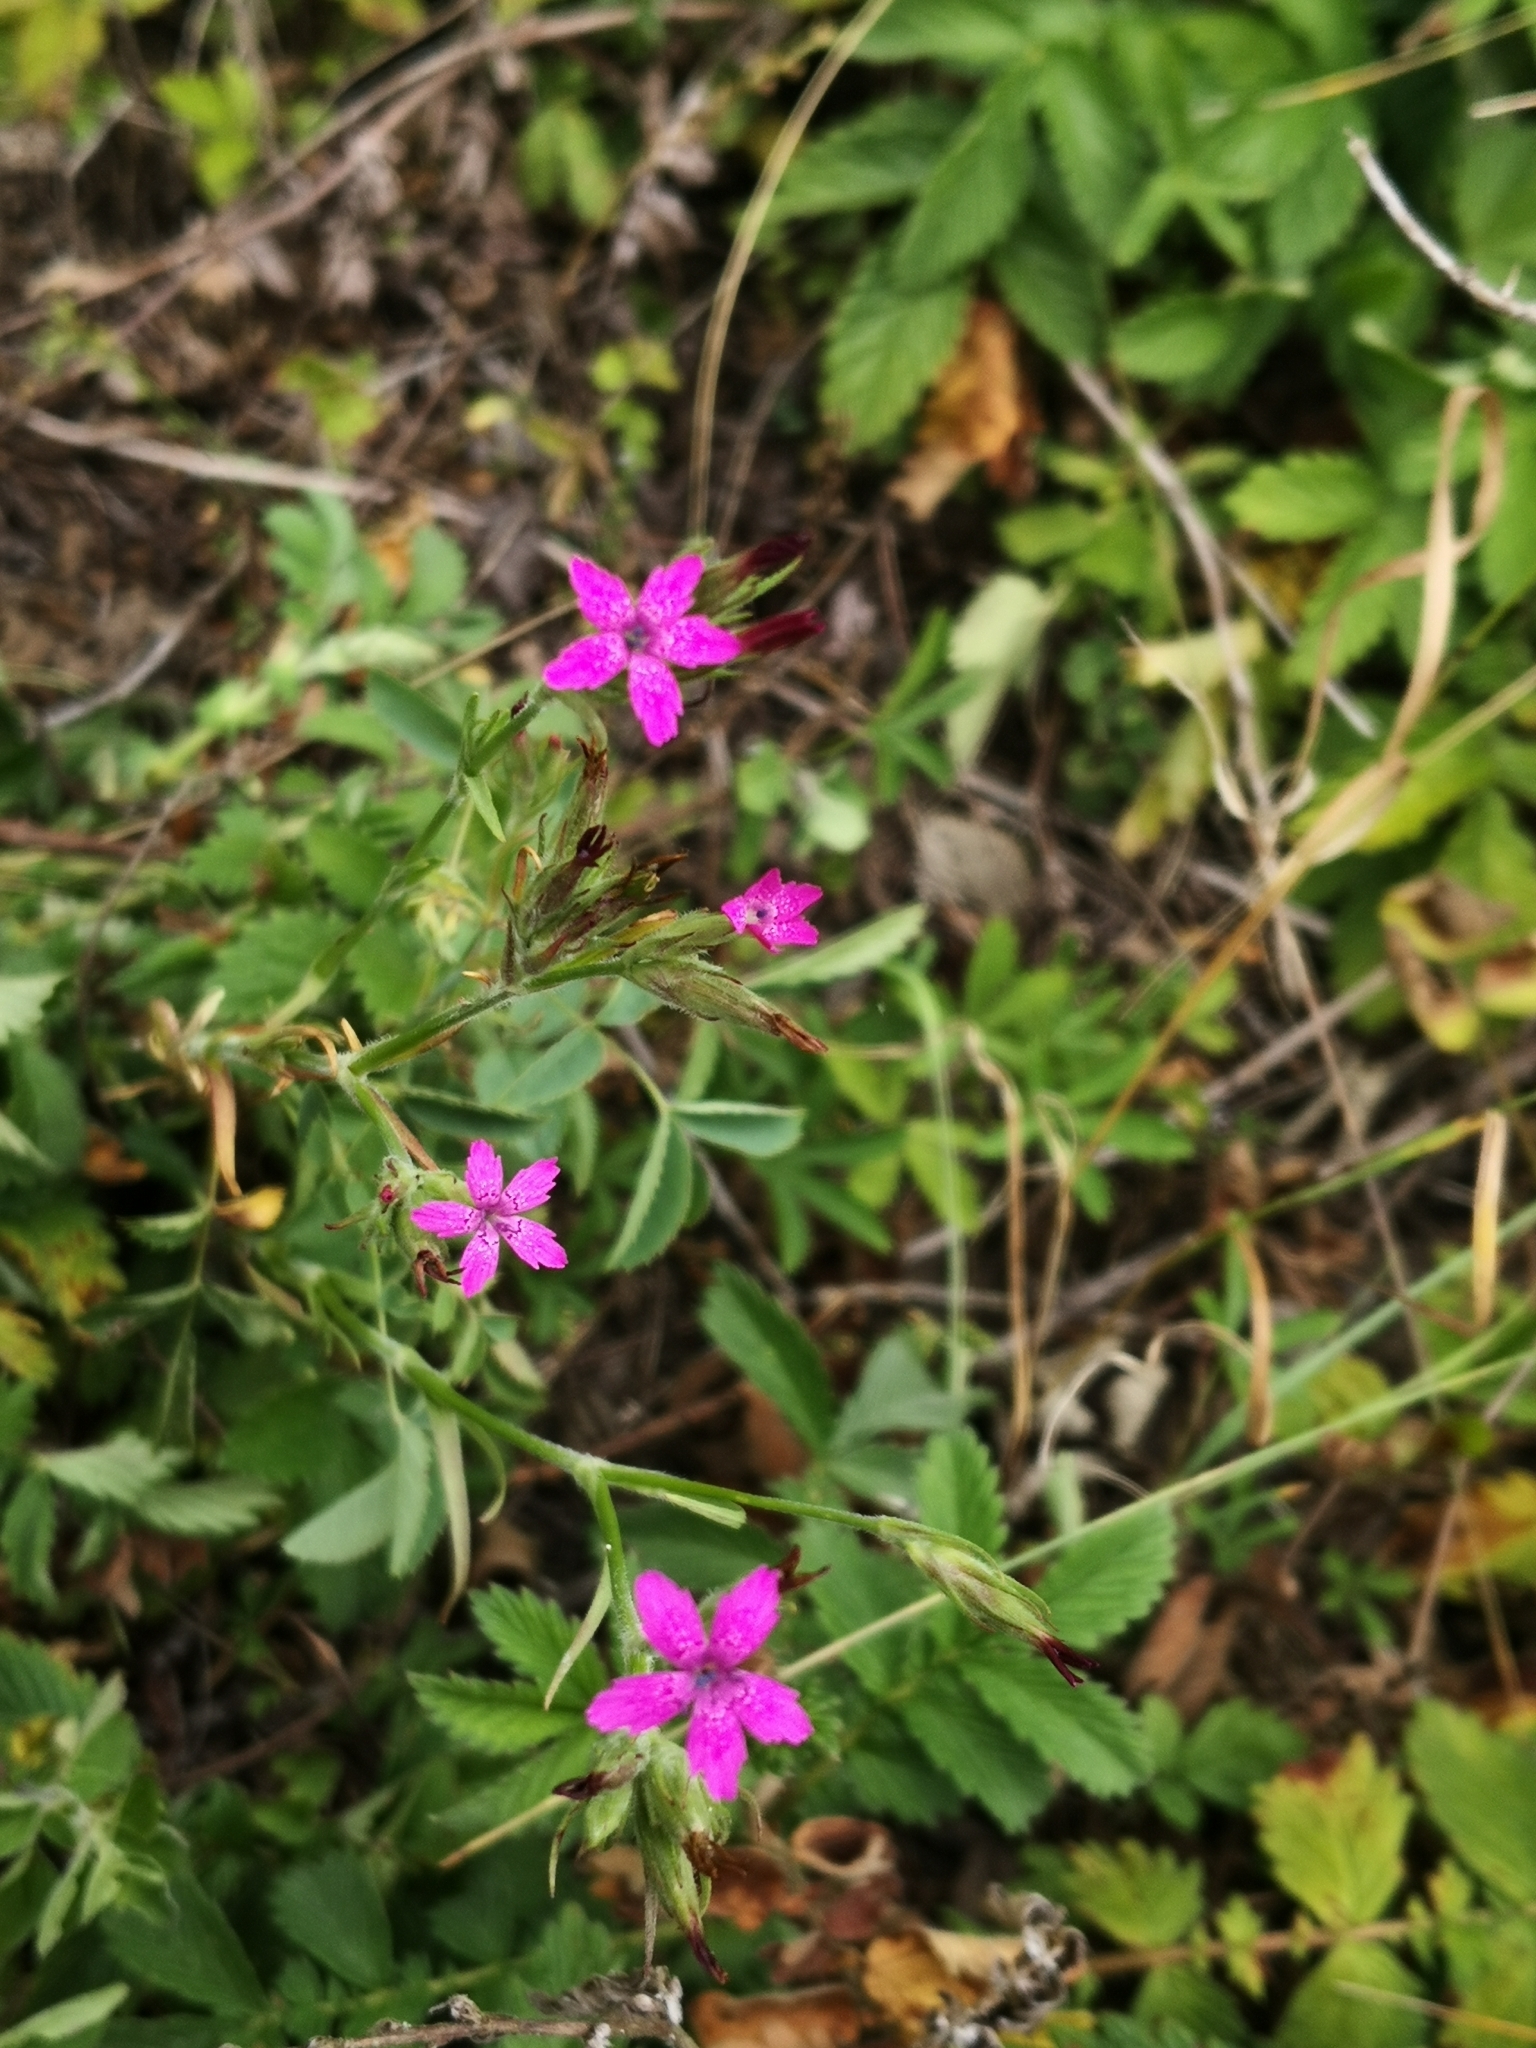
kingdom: Plantae
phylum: Tracheophyta
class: Magnoliopsida
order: Caryophyllales
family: Caryophyllaceae
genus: Dianthus
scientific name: Dianthus armeria
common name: Deptford pink
